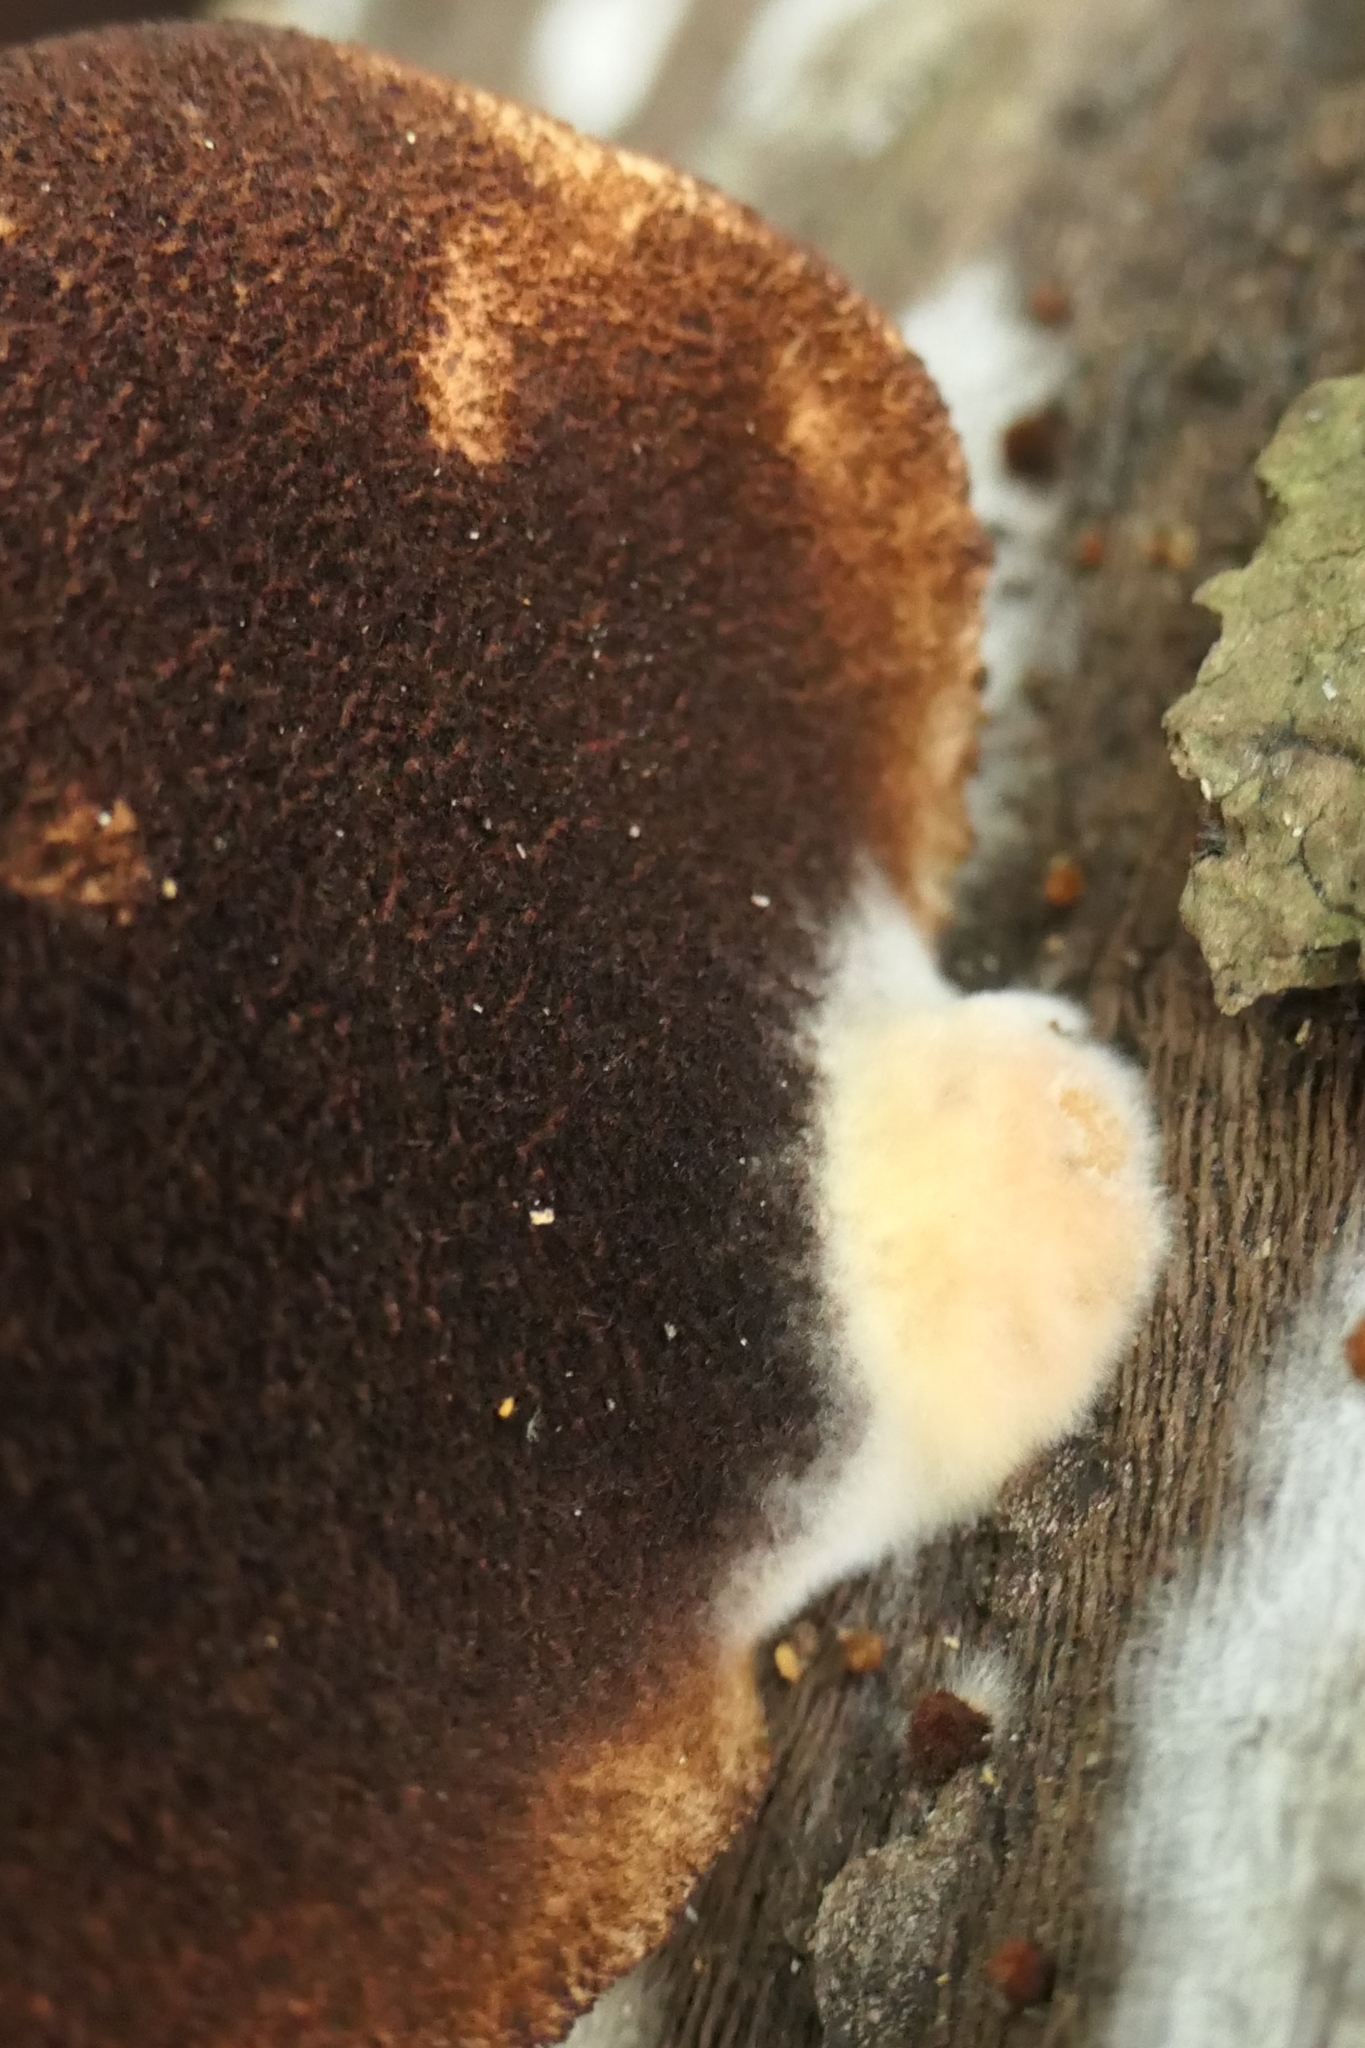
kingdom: Fungi
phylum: Basidiomycota
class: Agaricomycetes
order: Agaricales
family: Crepidotaceae
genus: Crepidotus
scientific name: Crepidotus fuscovelutinus
